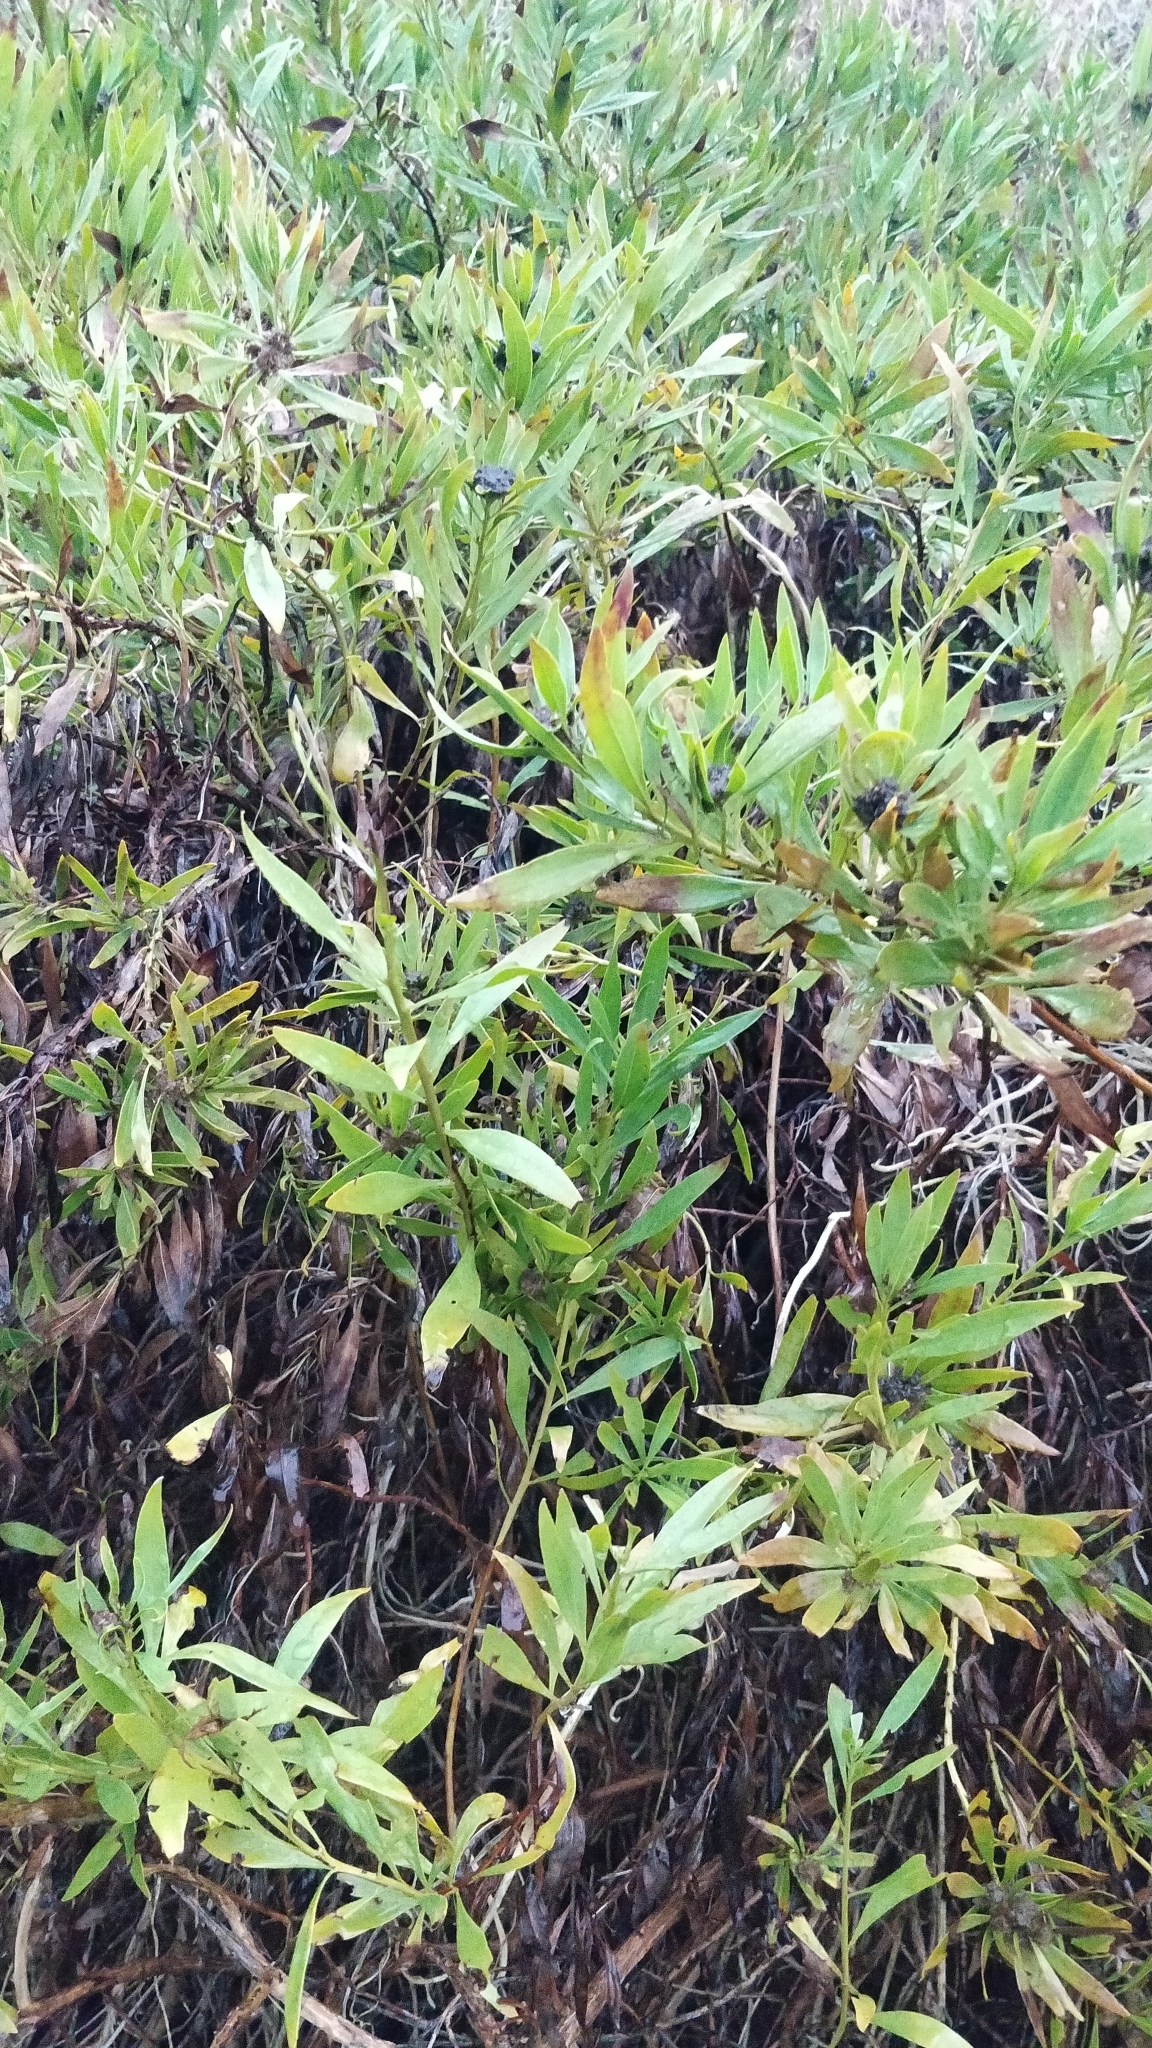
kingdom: Plantae
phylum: Tracheophyta
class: Magnoliopsida
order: Lamiales
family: Plantaginaceae
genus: Globularia
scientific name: Globularia salicina
